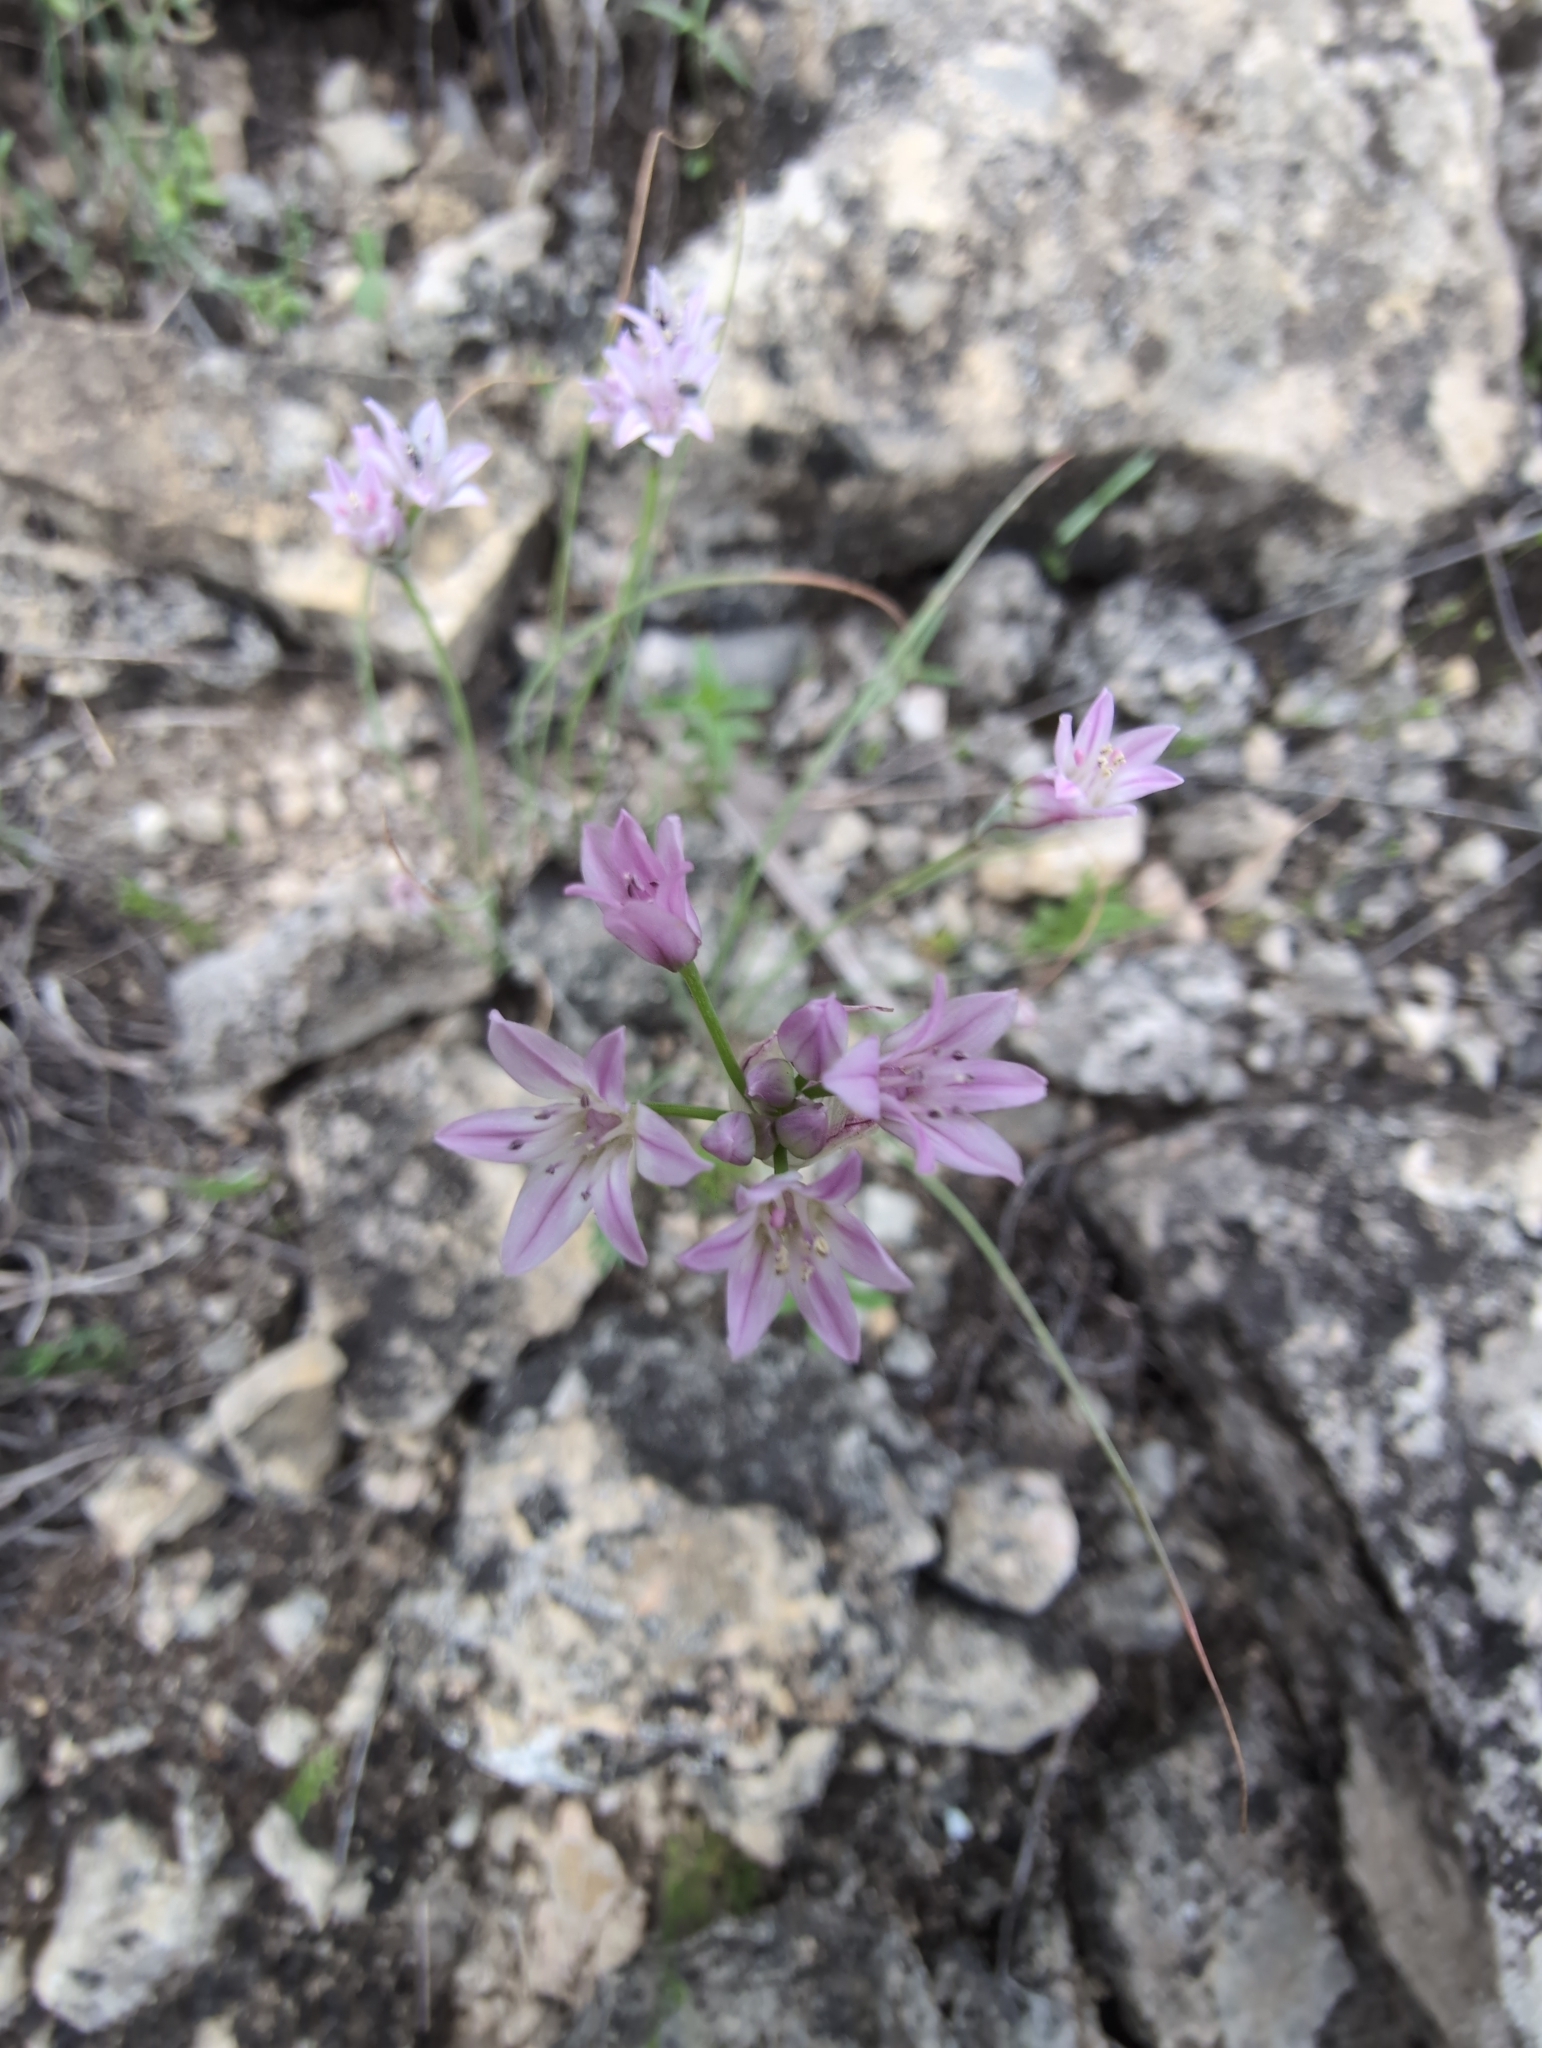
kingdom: Plantae
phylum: Tracheophyta
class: Liliopsida
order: Asparagales
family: Amaryllidaceae
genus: Allium
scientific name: Allium drummondii
